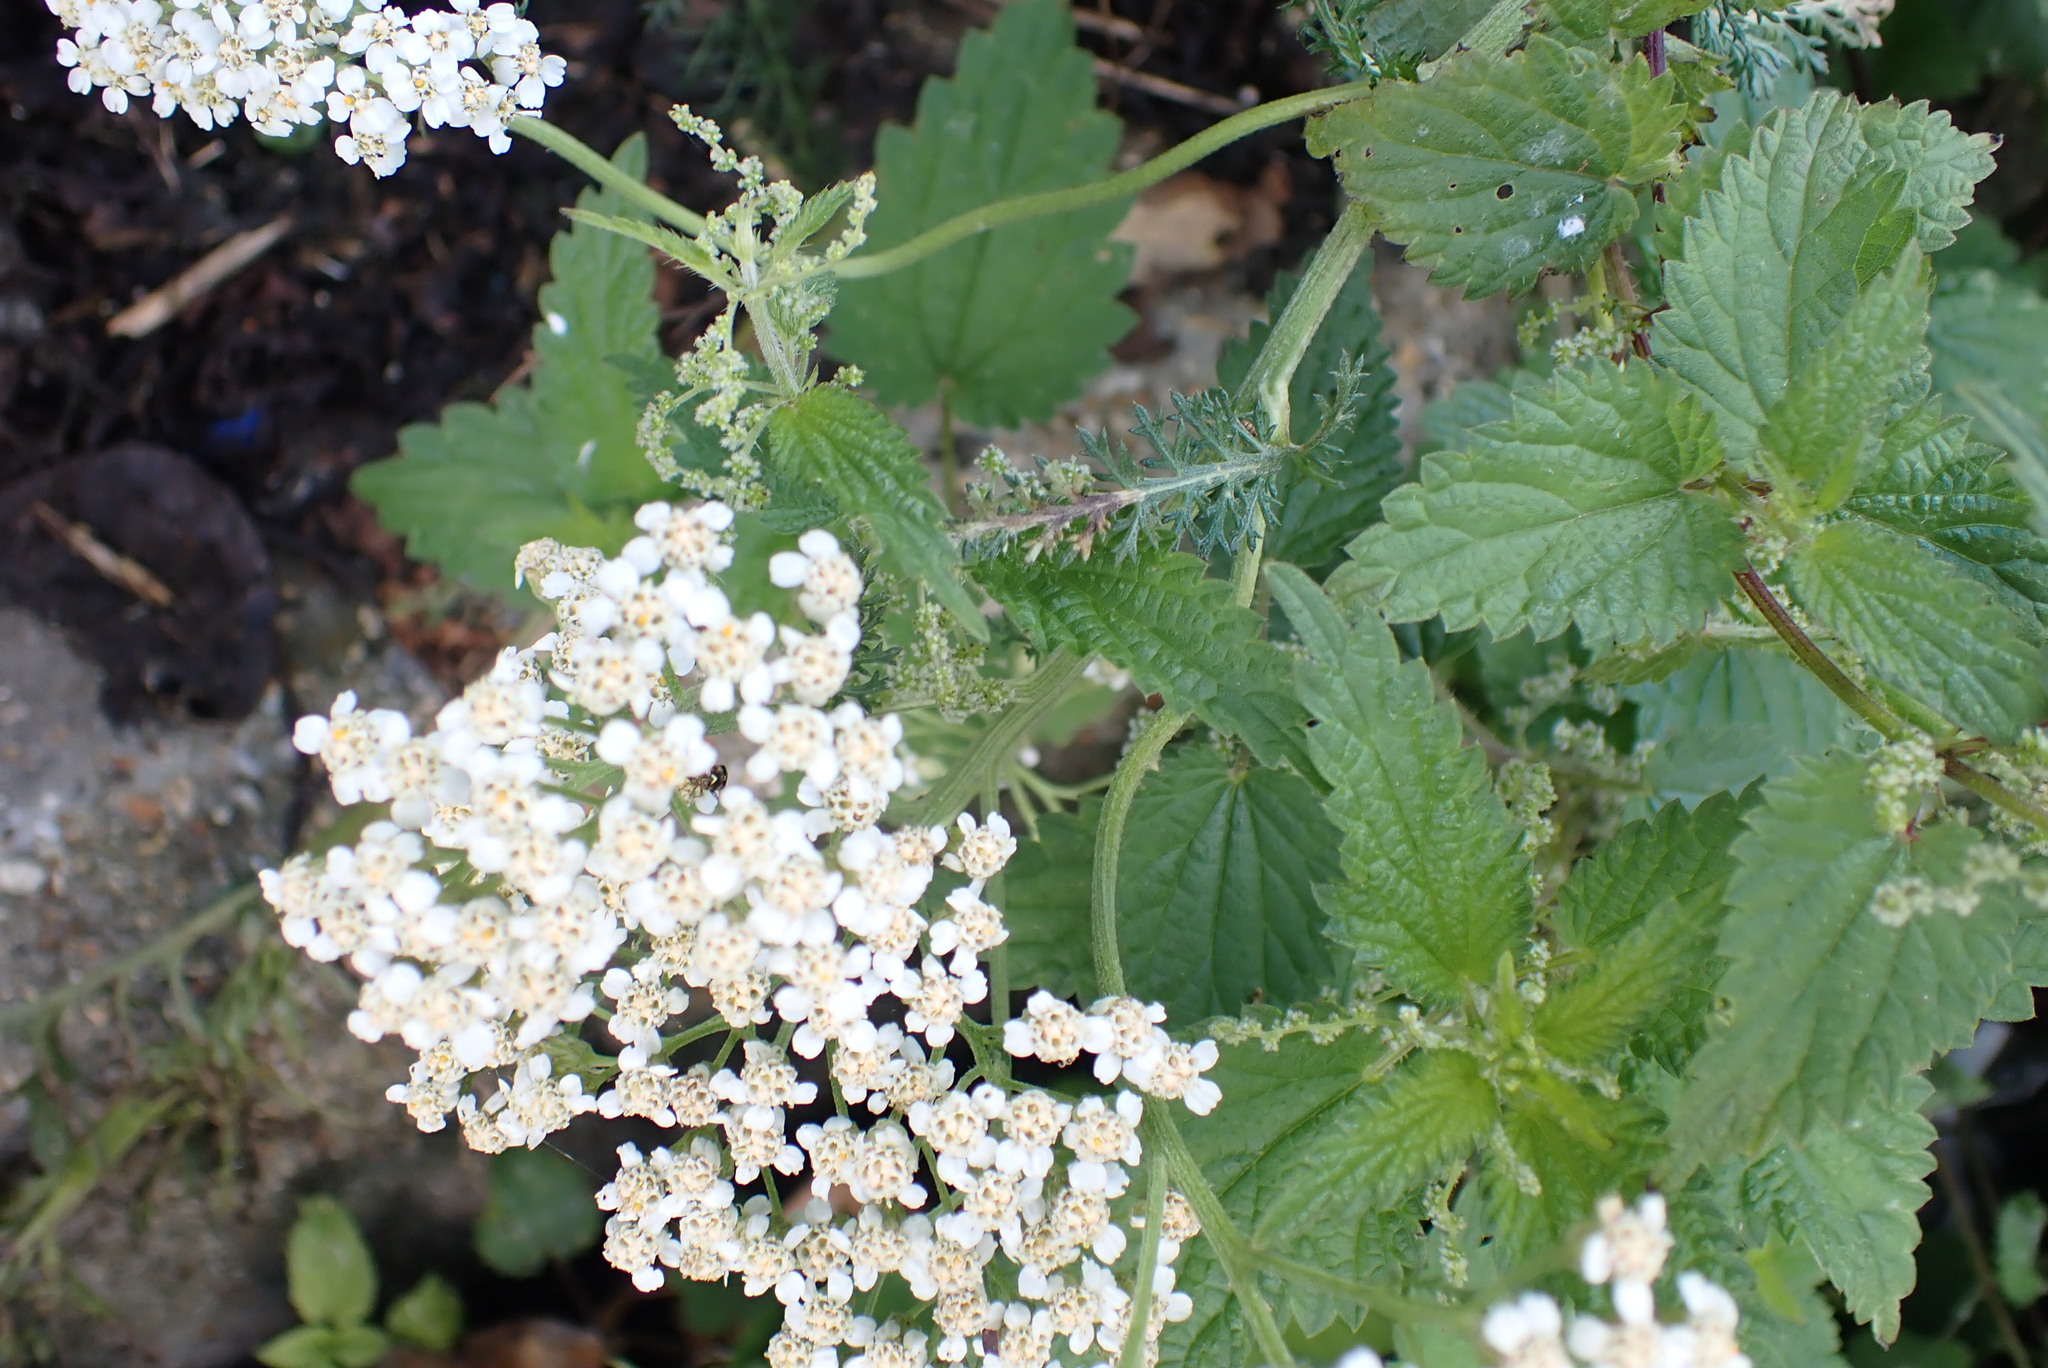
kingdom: Plantae
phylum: Tracheophyta
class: Magnoliopsida
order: Asterales
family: Asteraceae
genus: Achillea
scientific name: Achillea millefolium
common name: Yarrow
